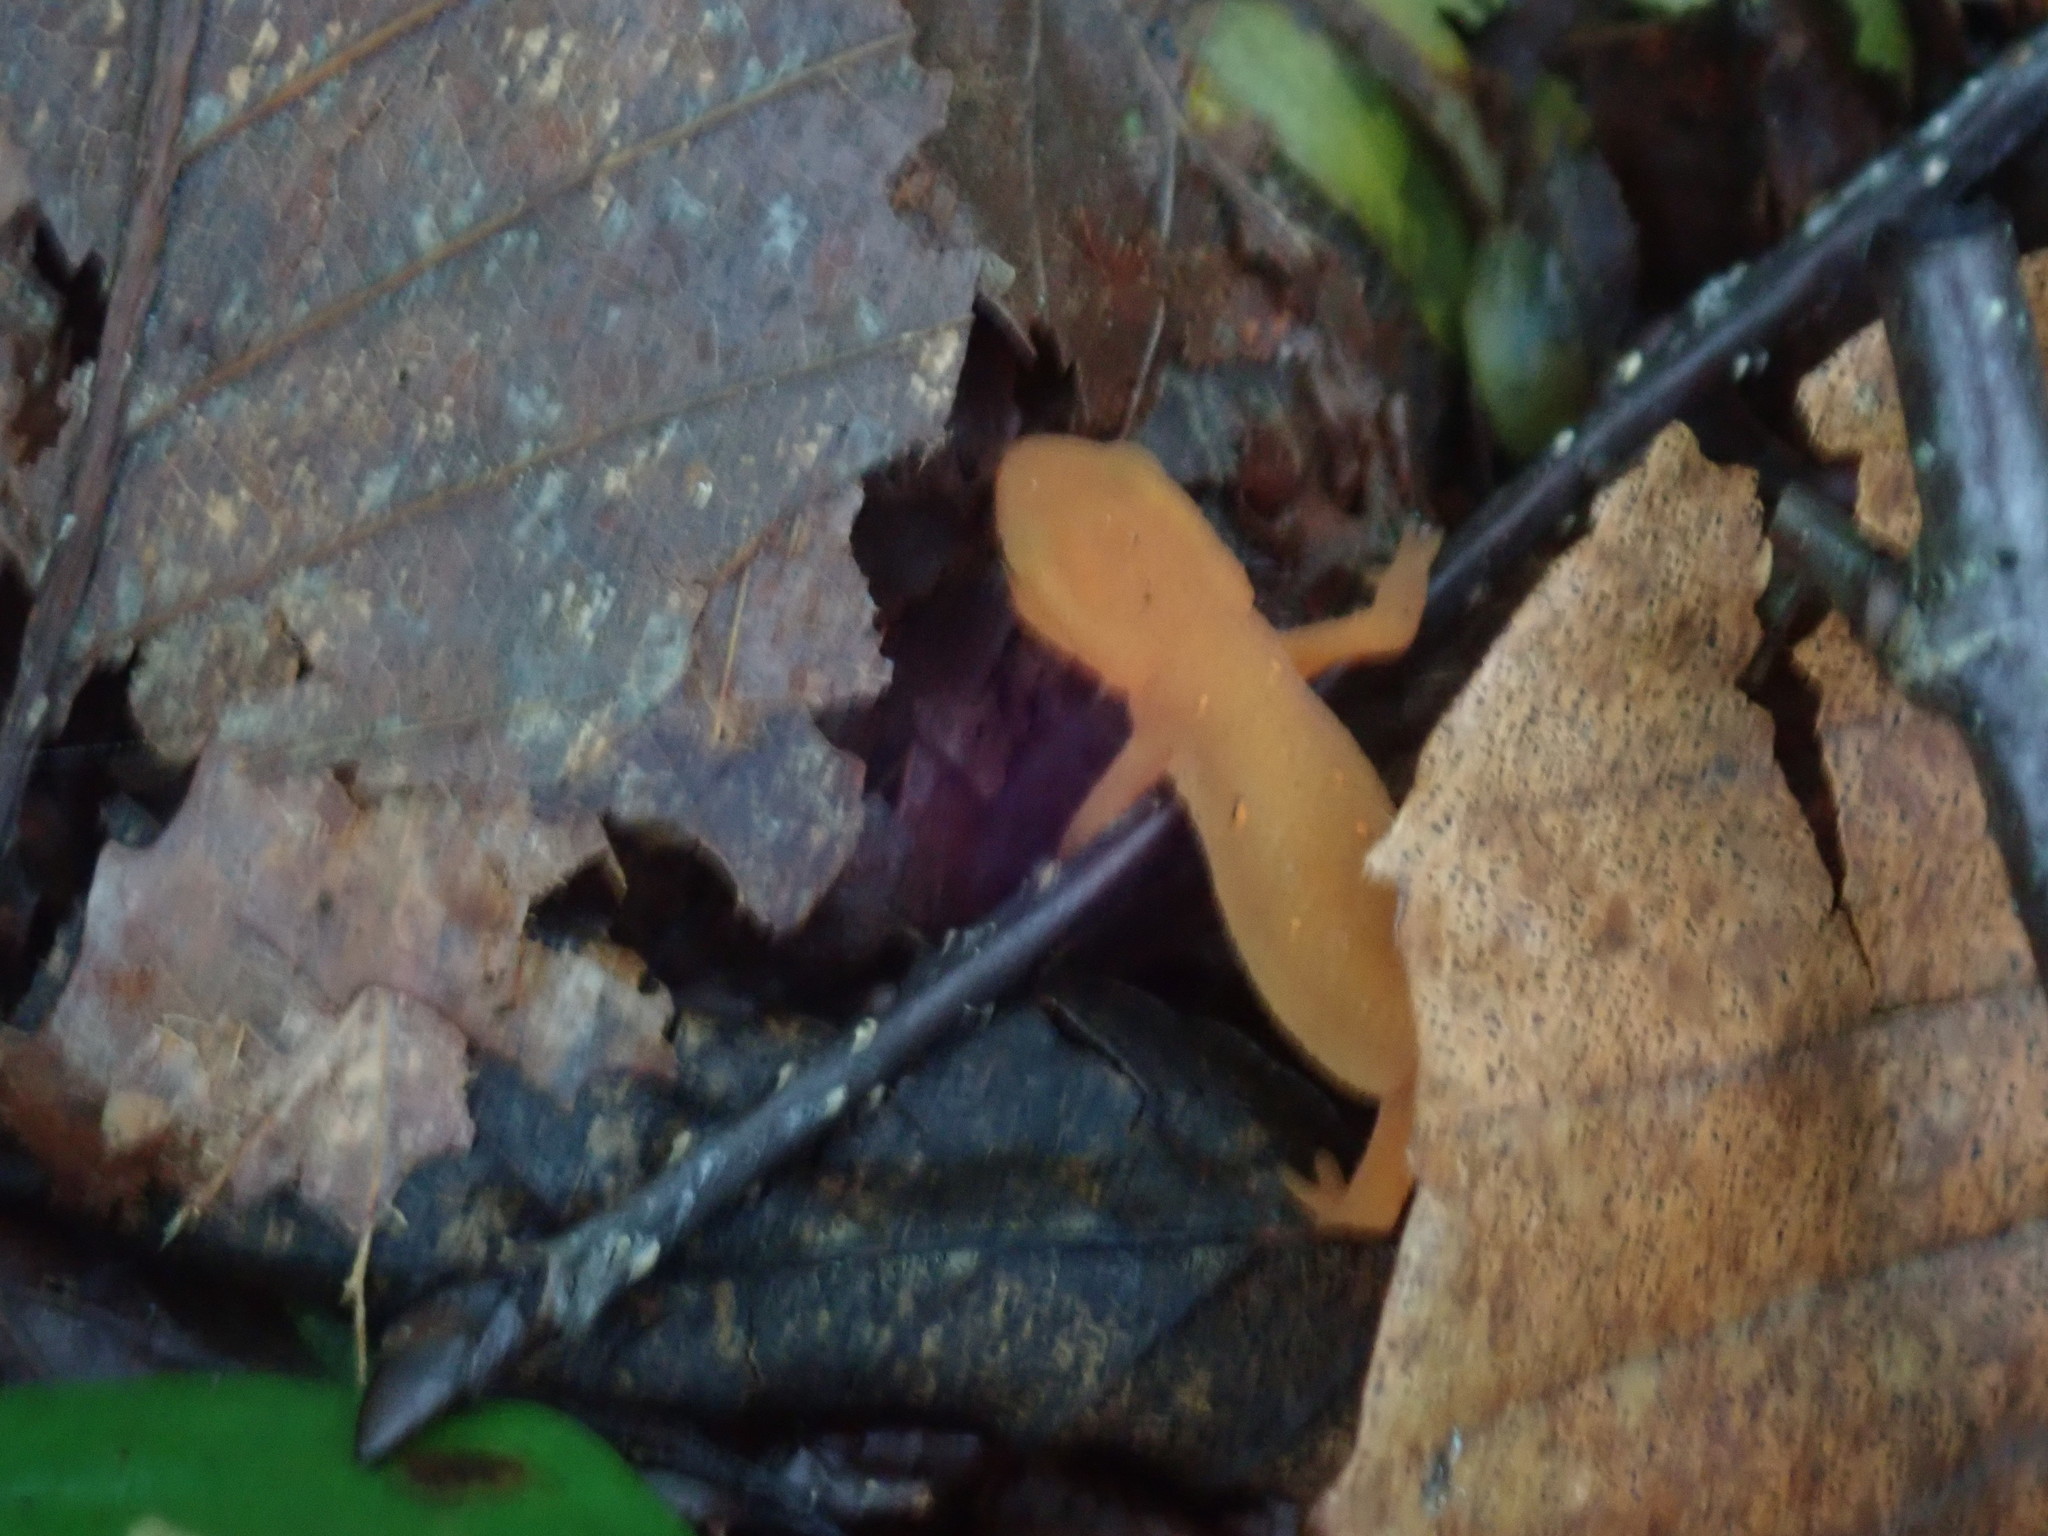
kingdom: Animalia
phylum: Chordata
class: Amphibia
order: Caudata
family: Salamandridae
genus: Notophthalmus
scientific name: Notophthalmus viridescens
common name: Eastern newt
